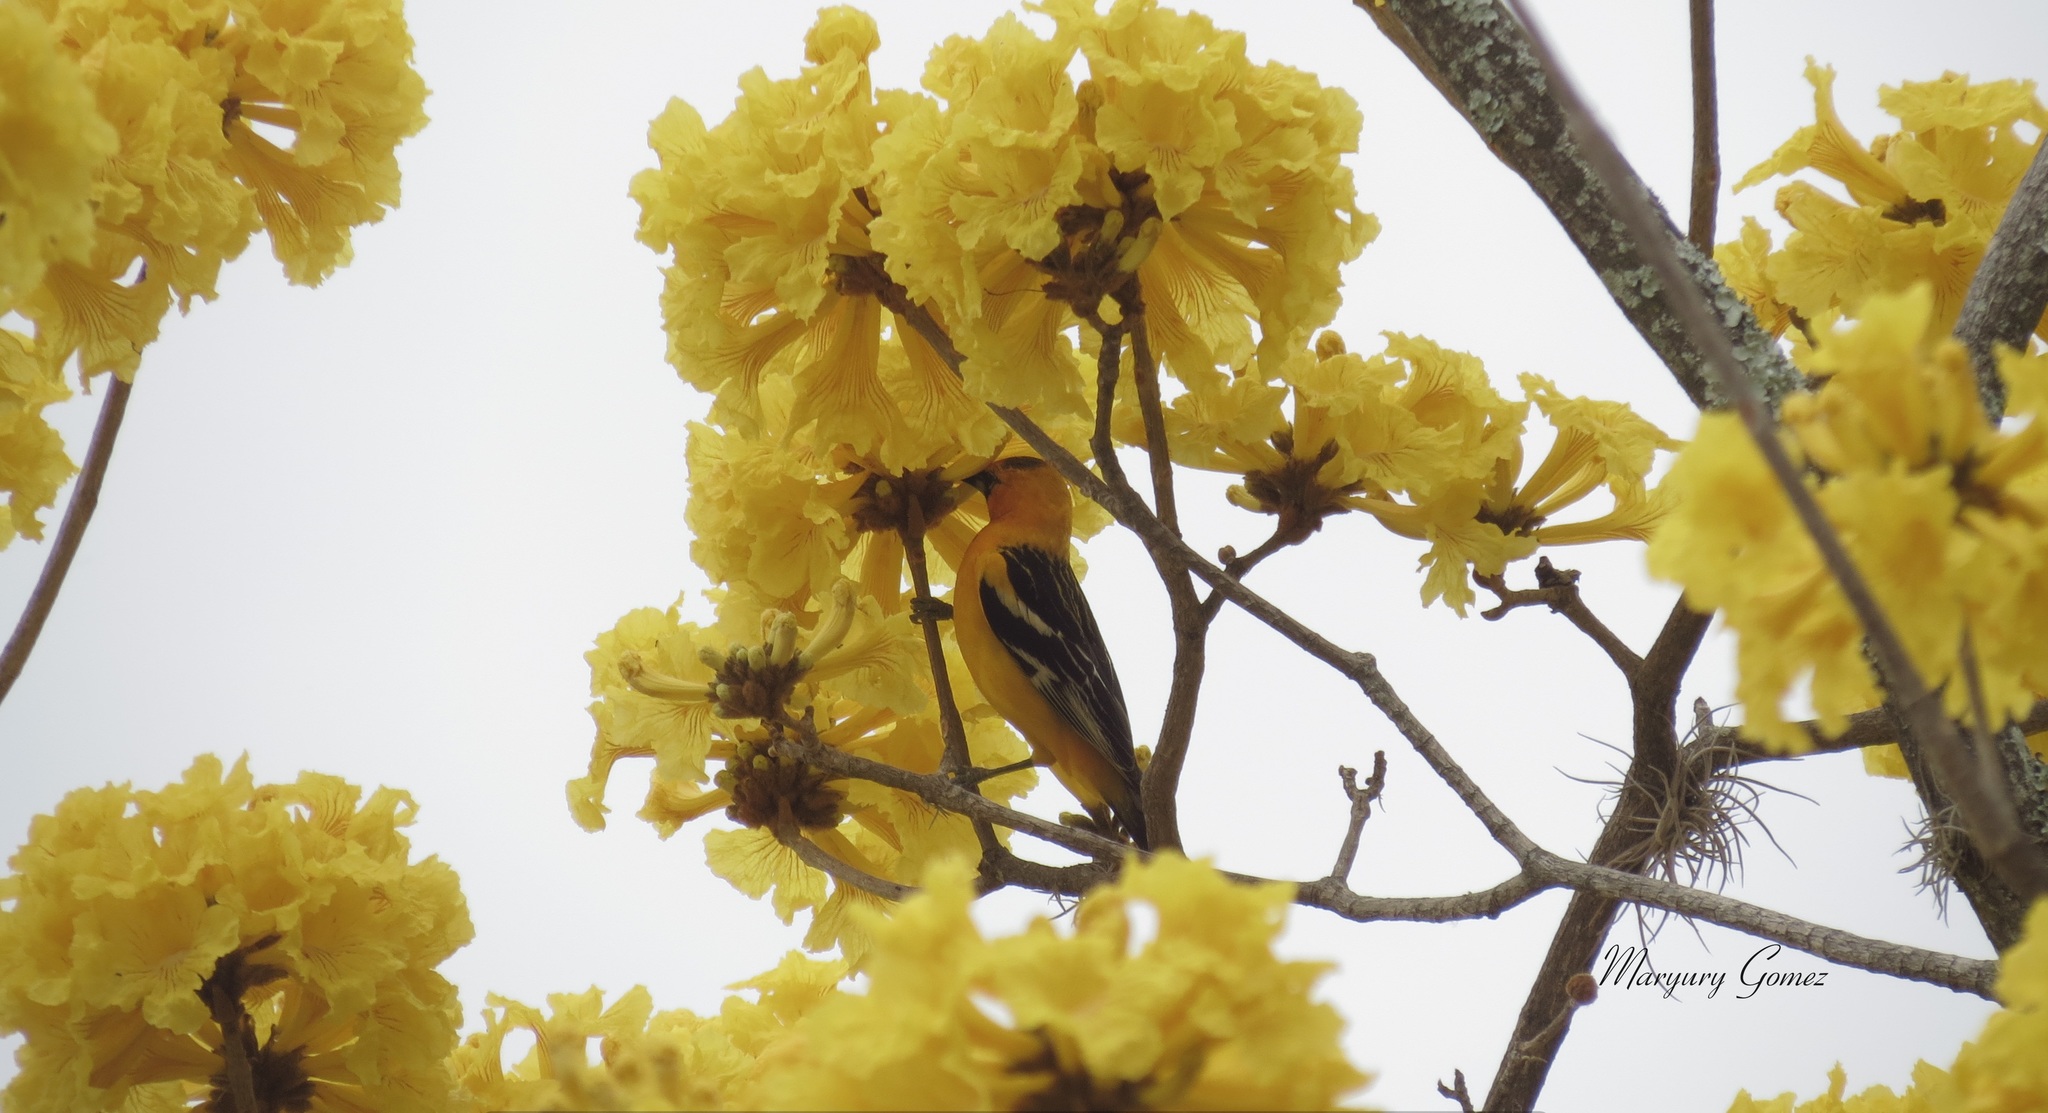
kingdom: Animalia
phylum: Chordata
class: Aves
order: Passeriformes
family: Icteridae
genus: Icterus
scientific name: Icterus pustulatus
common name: Streak-backed oriole
